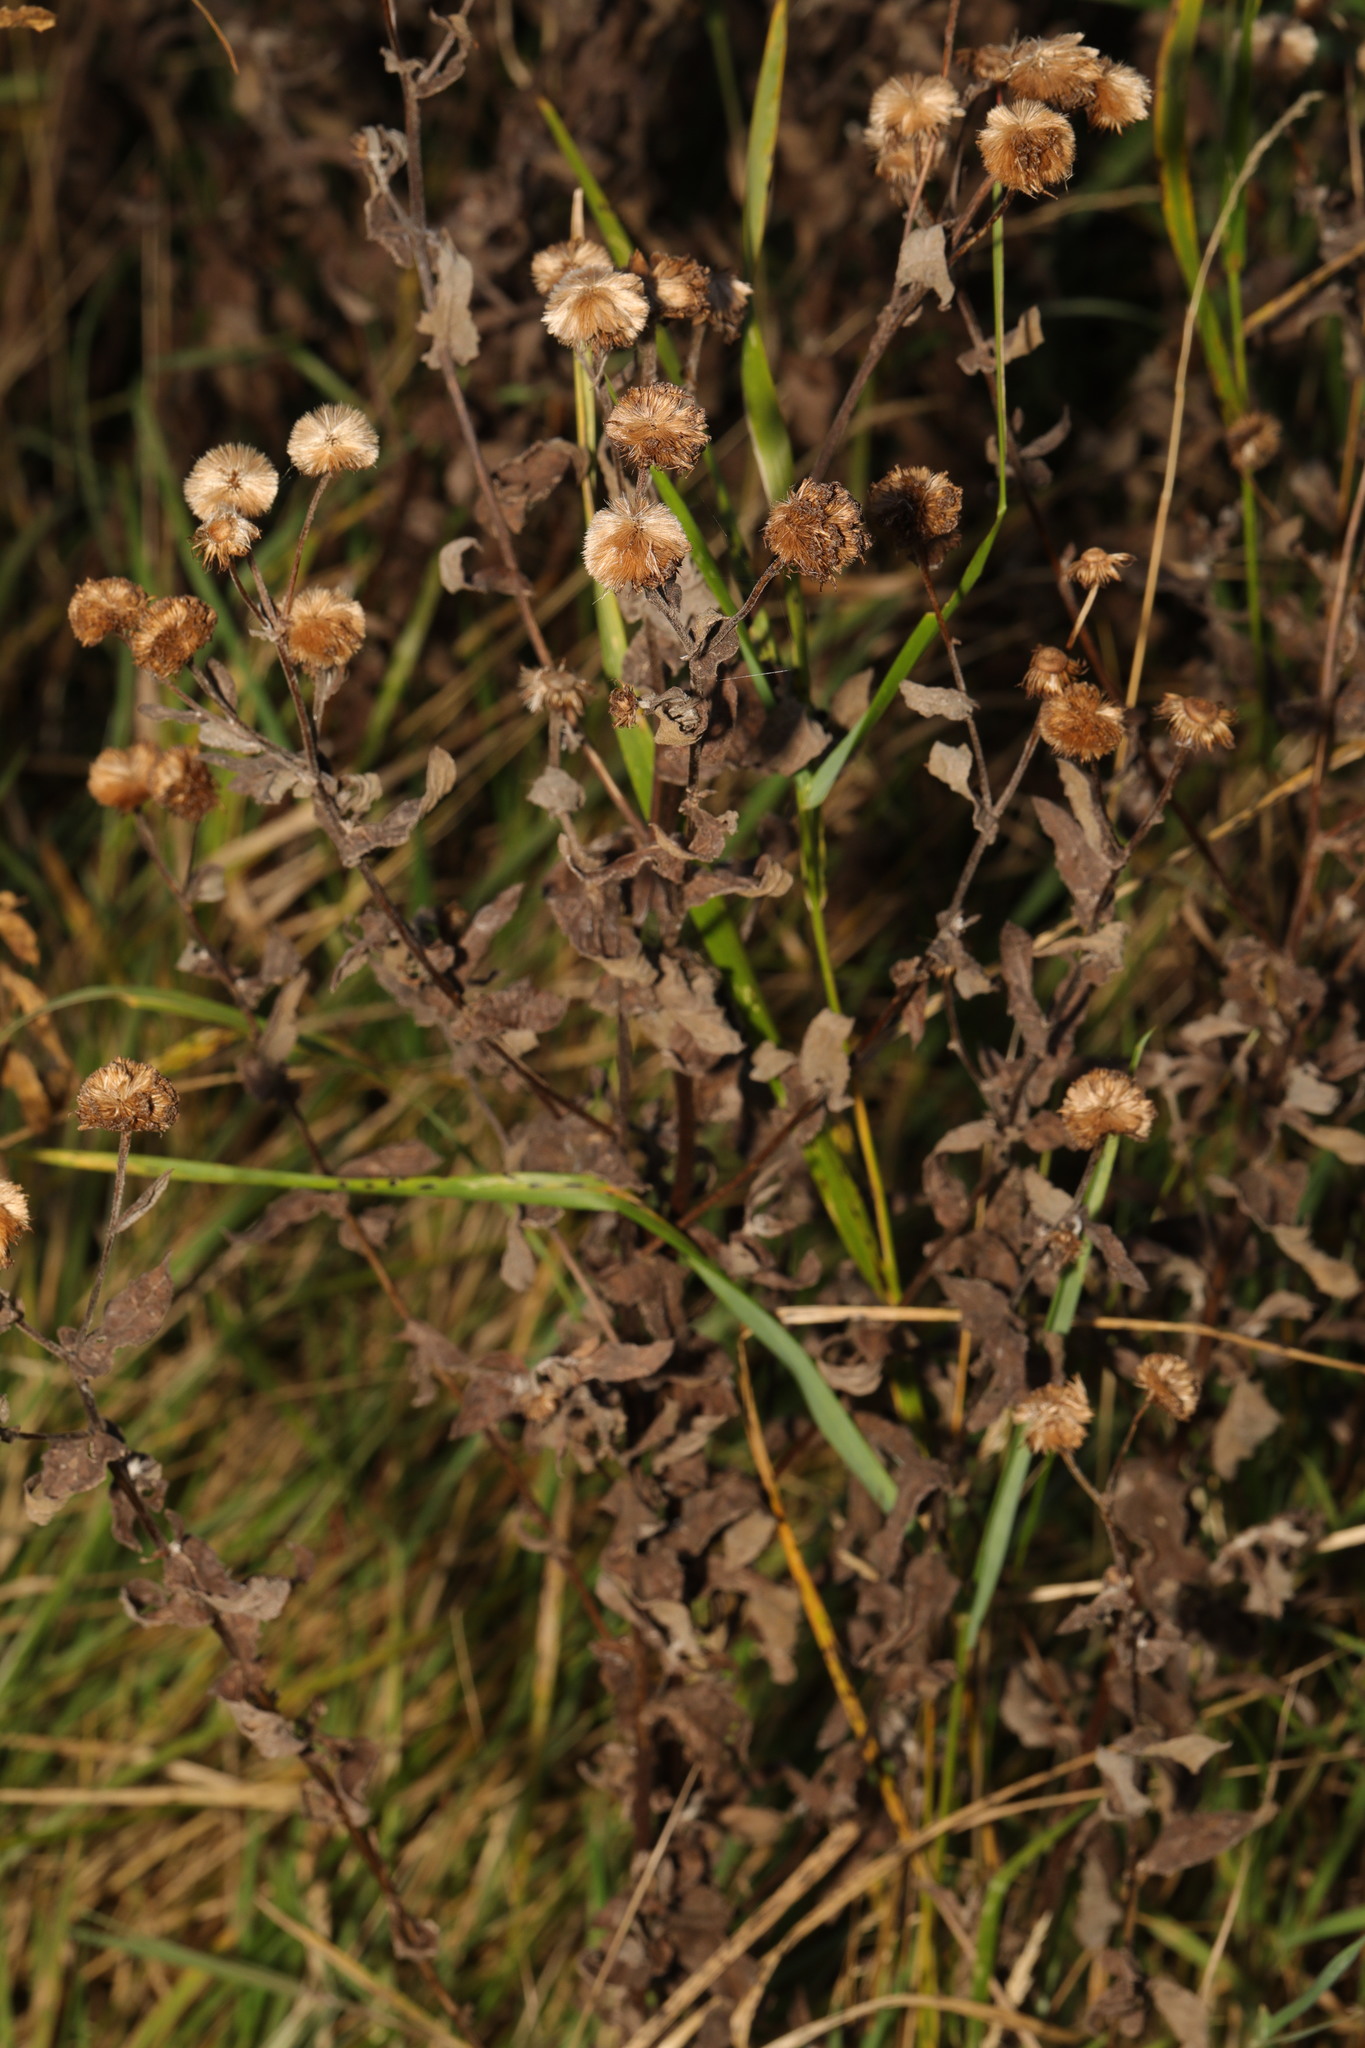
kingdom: Plantae
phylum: Tracheophyta
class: Magnoliopsida
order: Asterales
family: Asteraceae
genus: Pulicaria
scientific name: Pulicaria dysenterica
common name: Common fleabane
